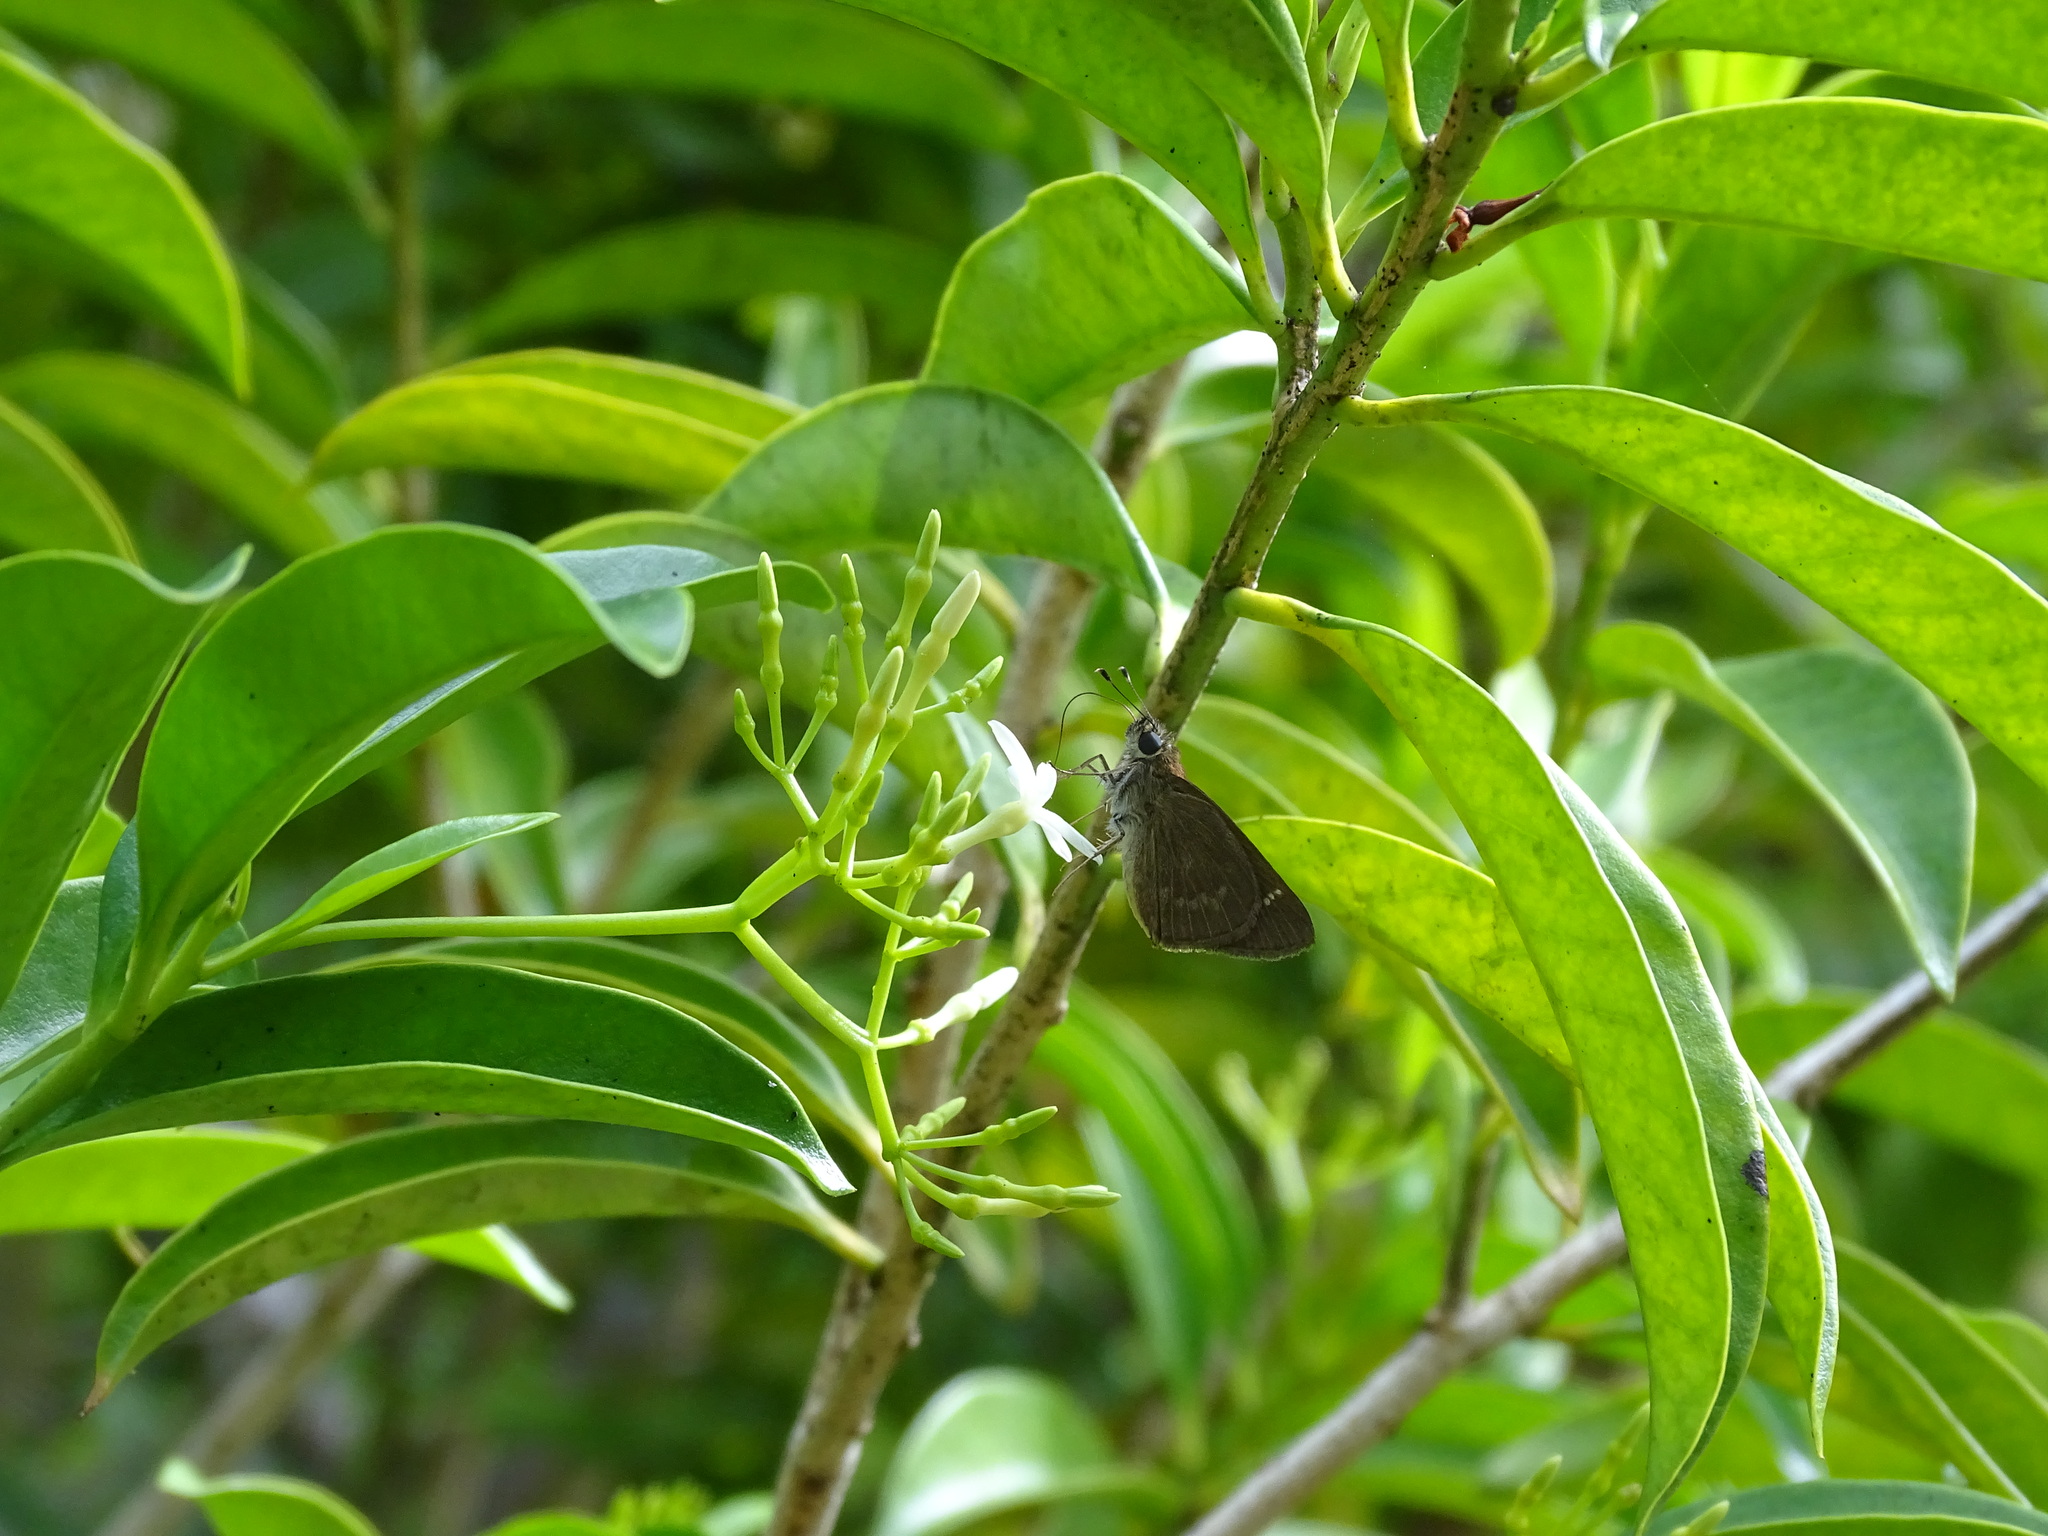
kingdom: Animalia
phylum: Arthropoda
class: Insecta
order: Lepidoptera
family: Hesperiidae
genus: Cymaenes
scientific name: Cymaenes tripunctus
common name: Dingy dotted skipper
